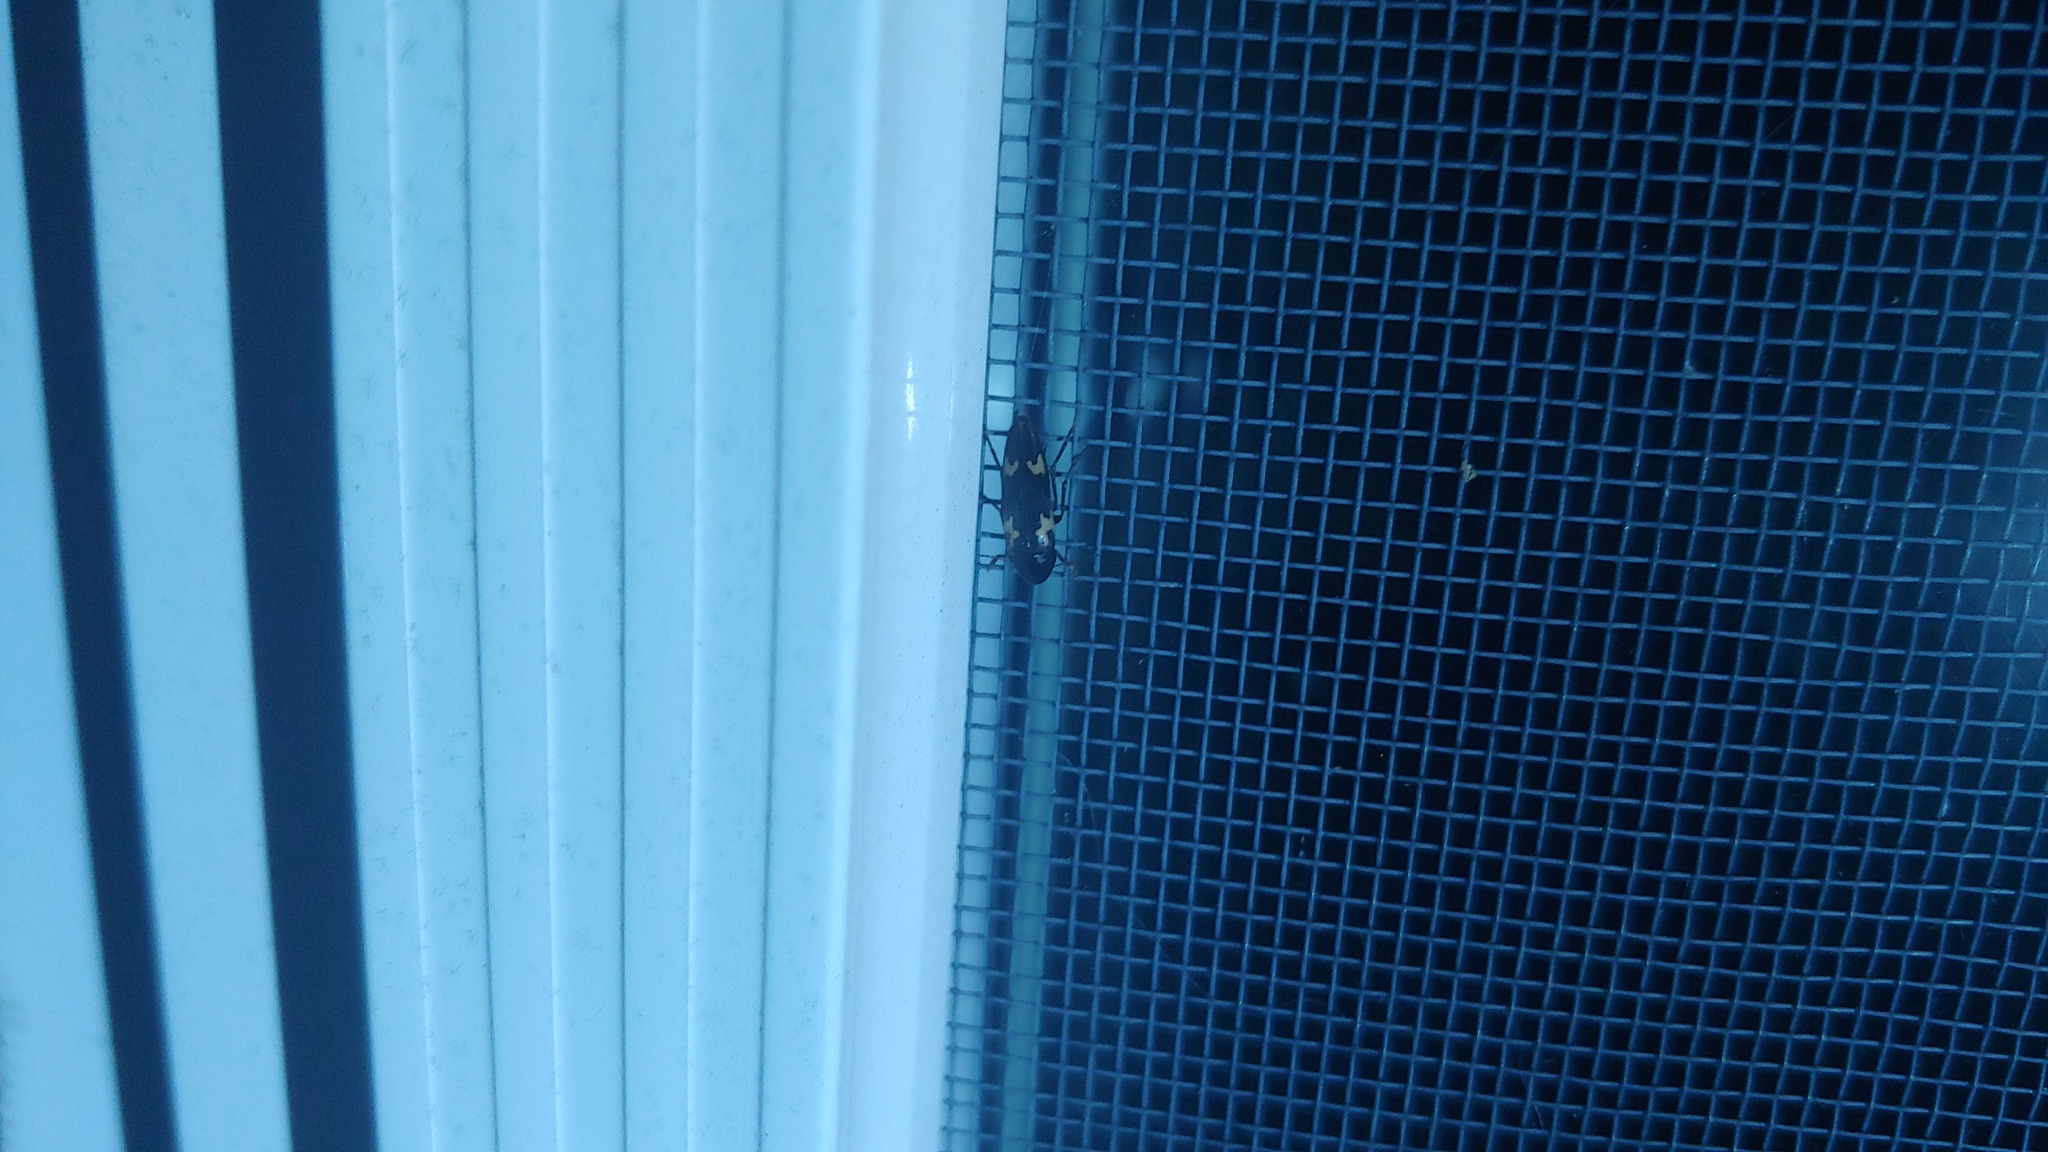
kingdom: Animalia
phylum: Arthropoda
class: Insecta
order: Coleoptera
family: Melandryidae
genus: Dircaea
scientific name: Dircaea liturata
